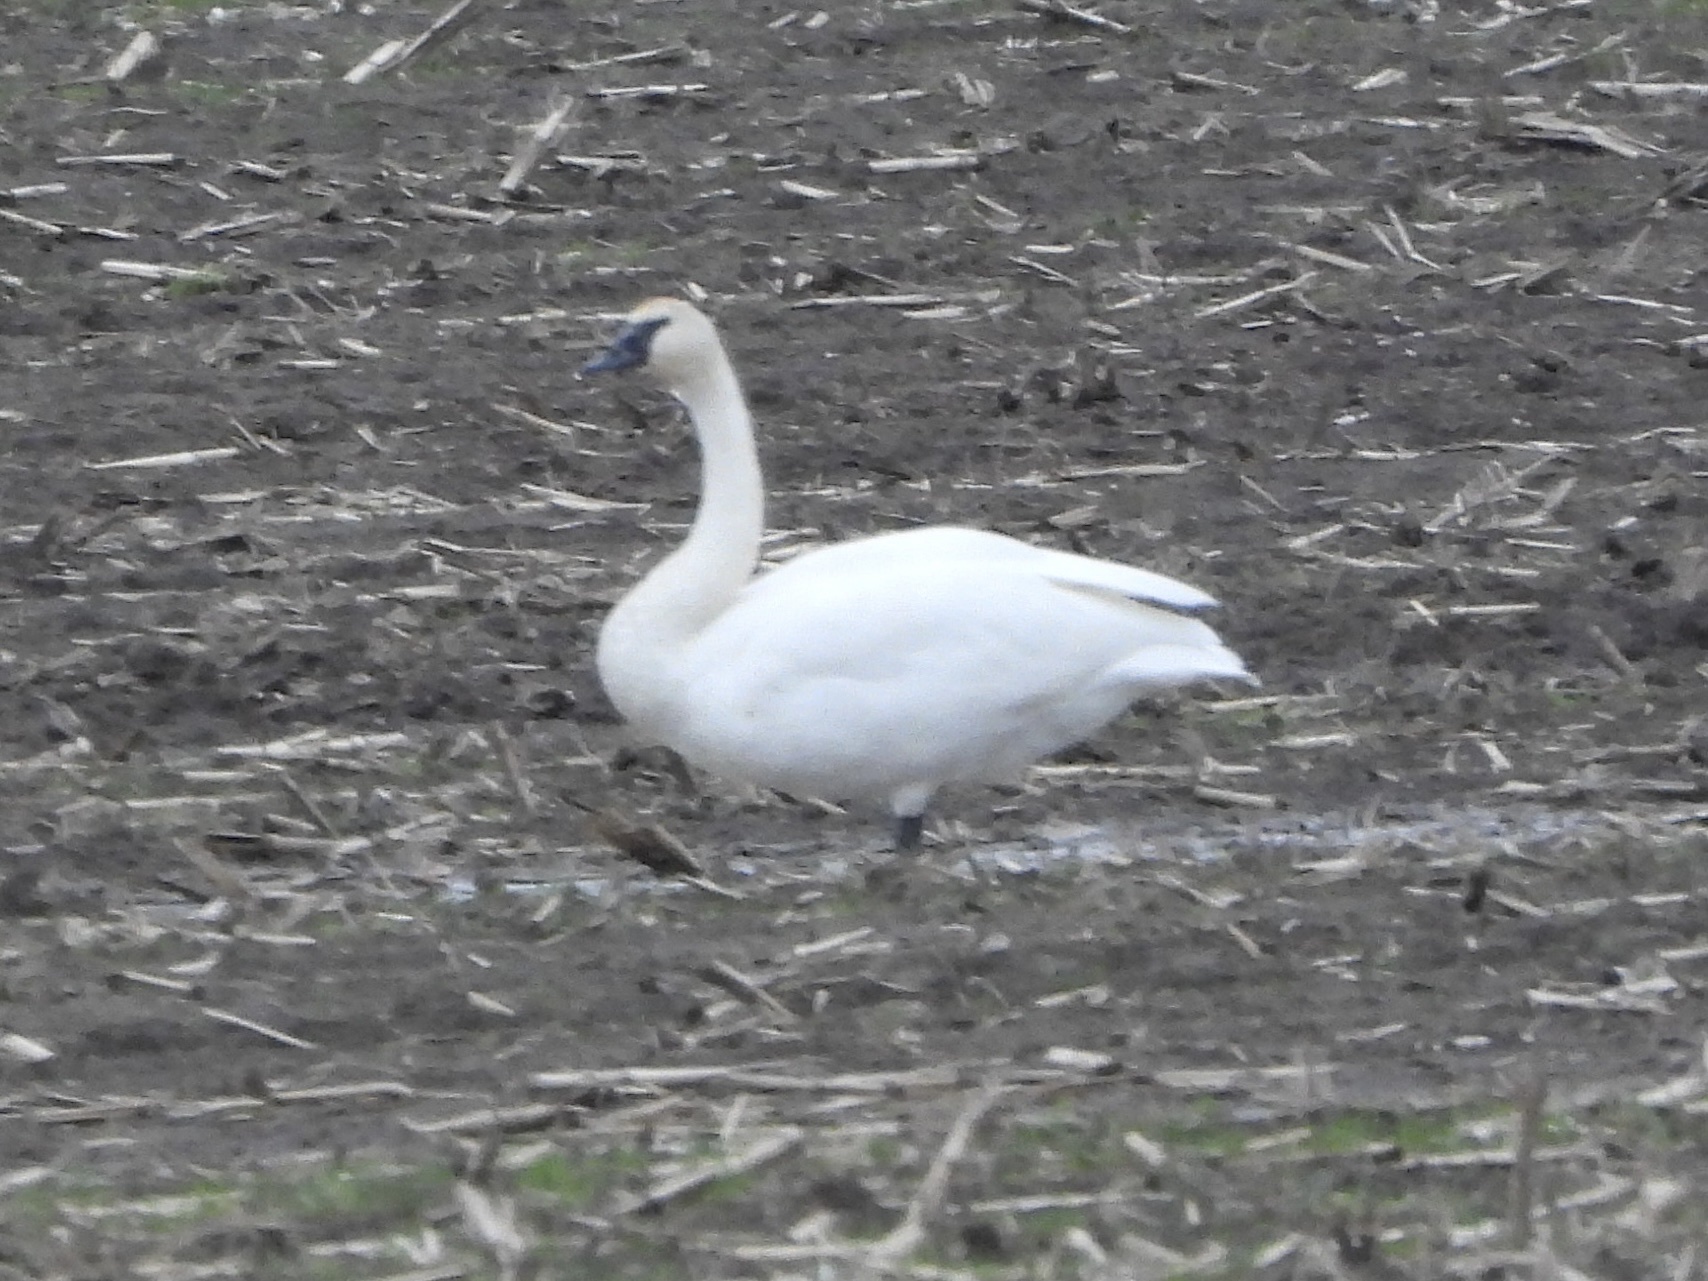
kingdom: Animalia
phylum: Chordata
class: Aves
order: Anseriformes
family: Anatidae
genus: Cygnus
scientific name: Cygnus buccinator
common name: Trumpeter swan
